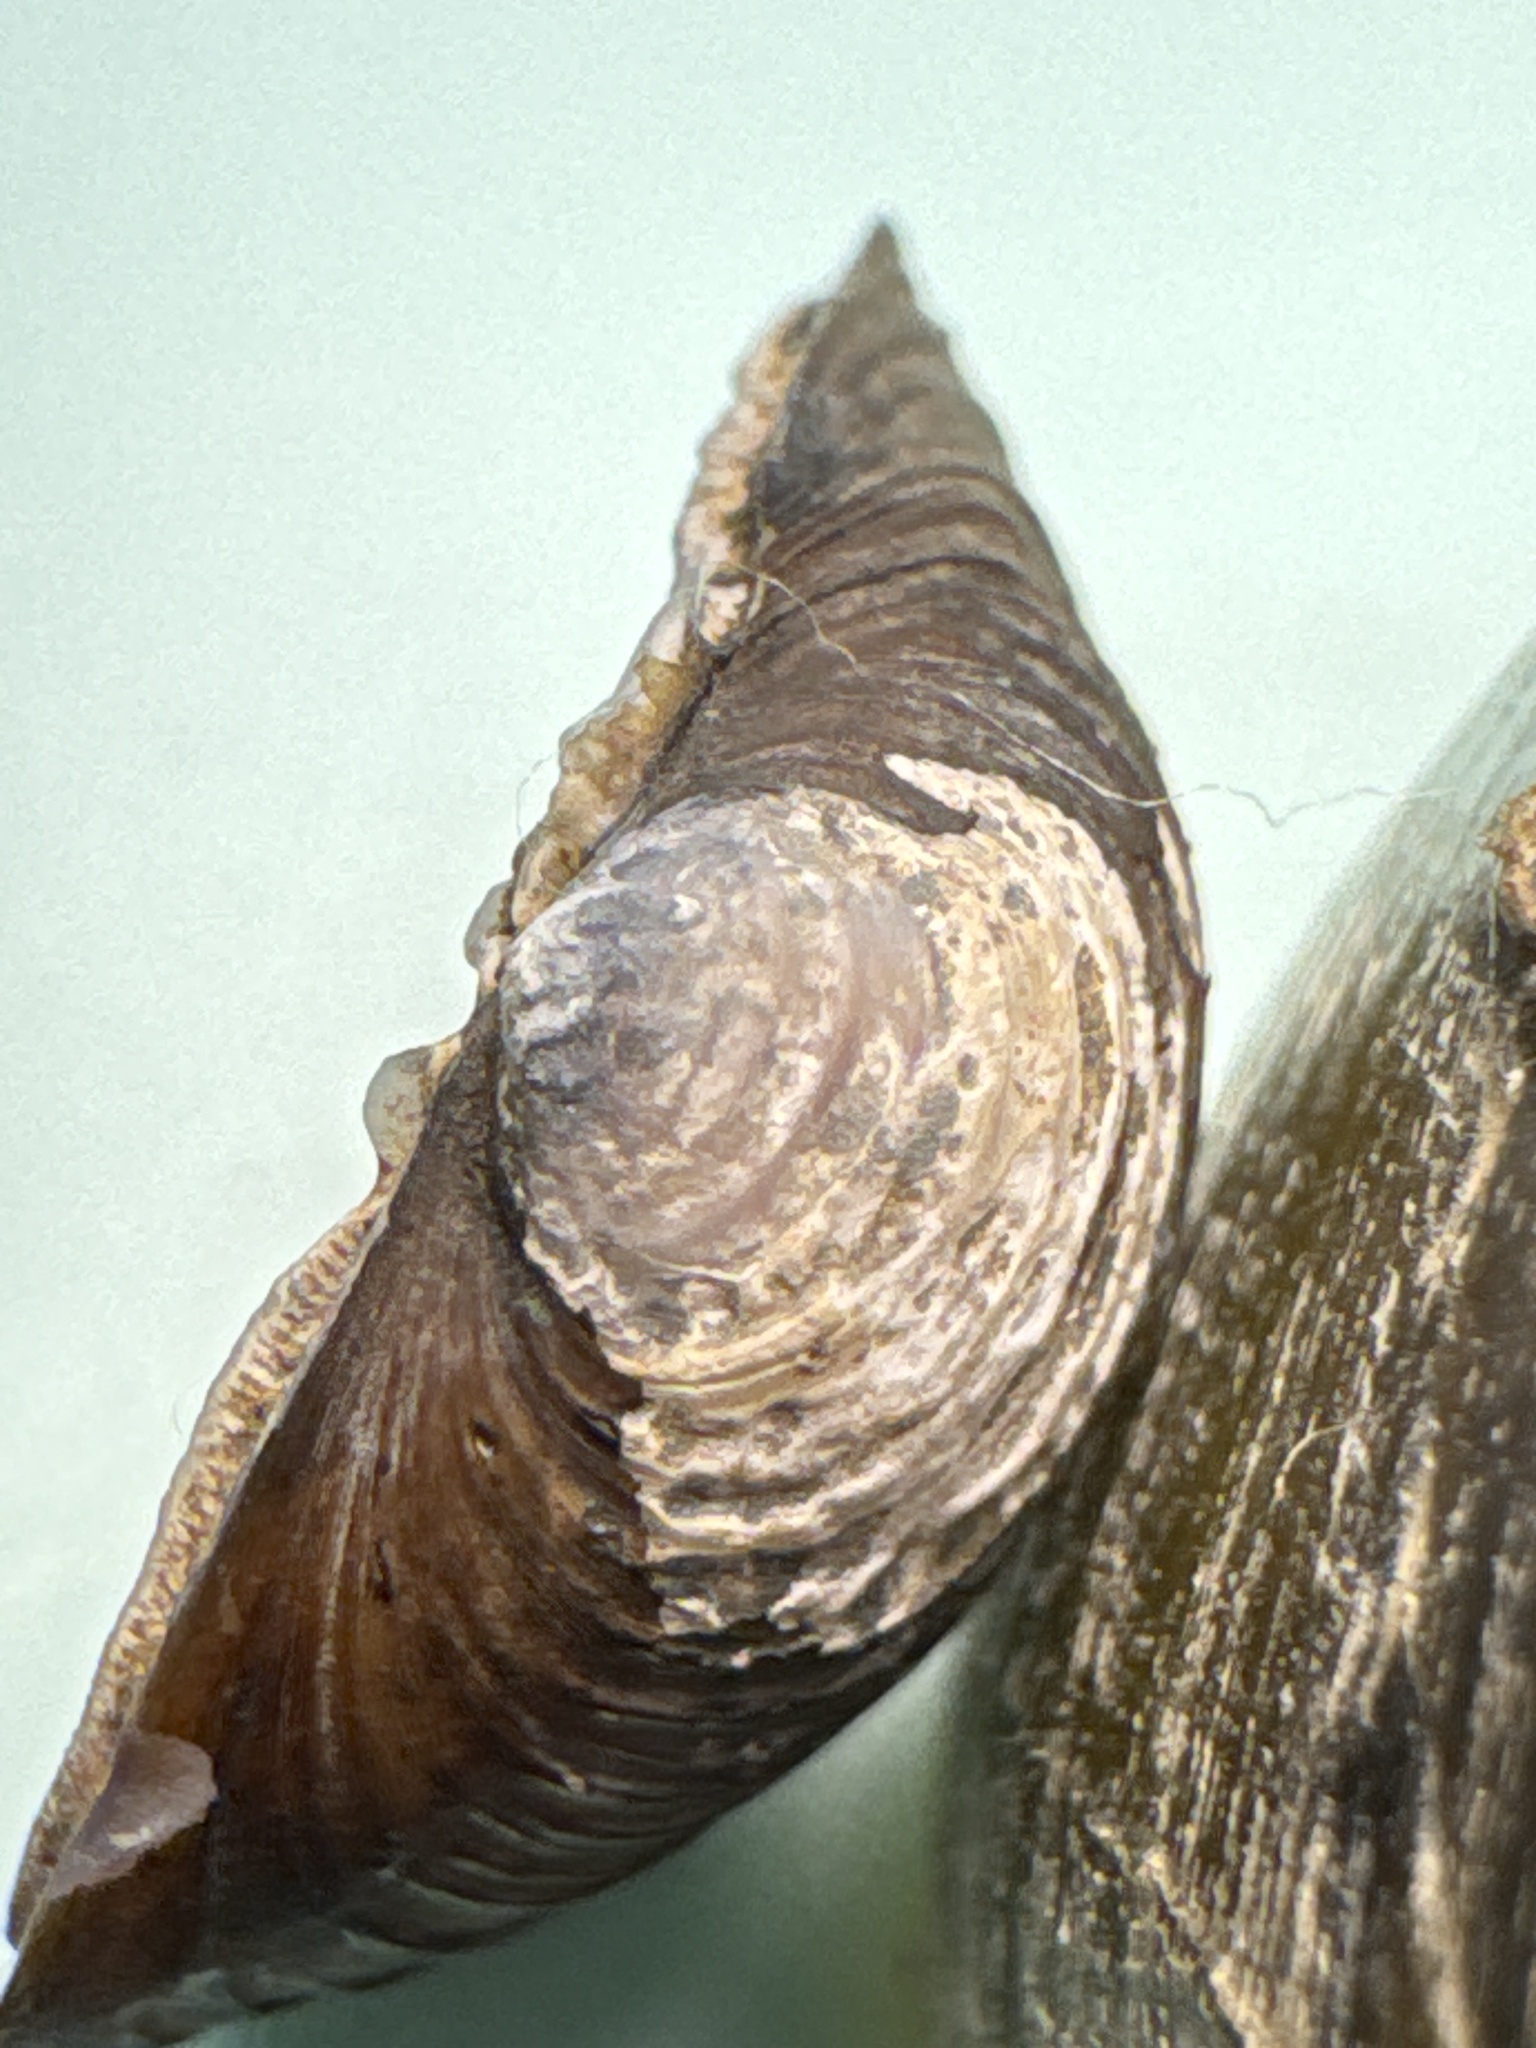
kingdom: Animalia
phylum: Mollusca
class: Bivalvia
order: Venerida
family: Cyrenidae
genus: Corbicula
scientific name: Corbicula fluminea
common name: Asian clam
